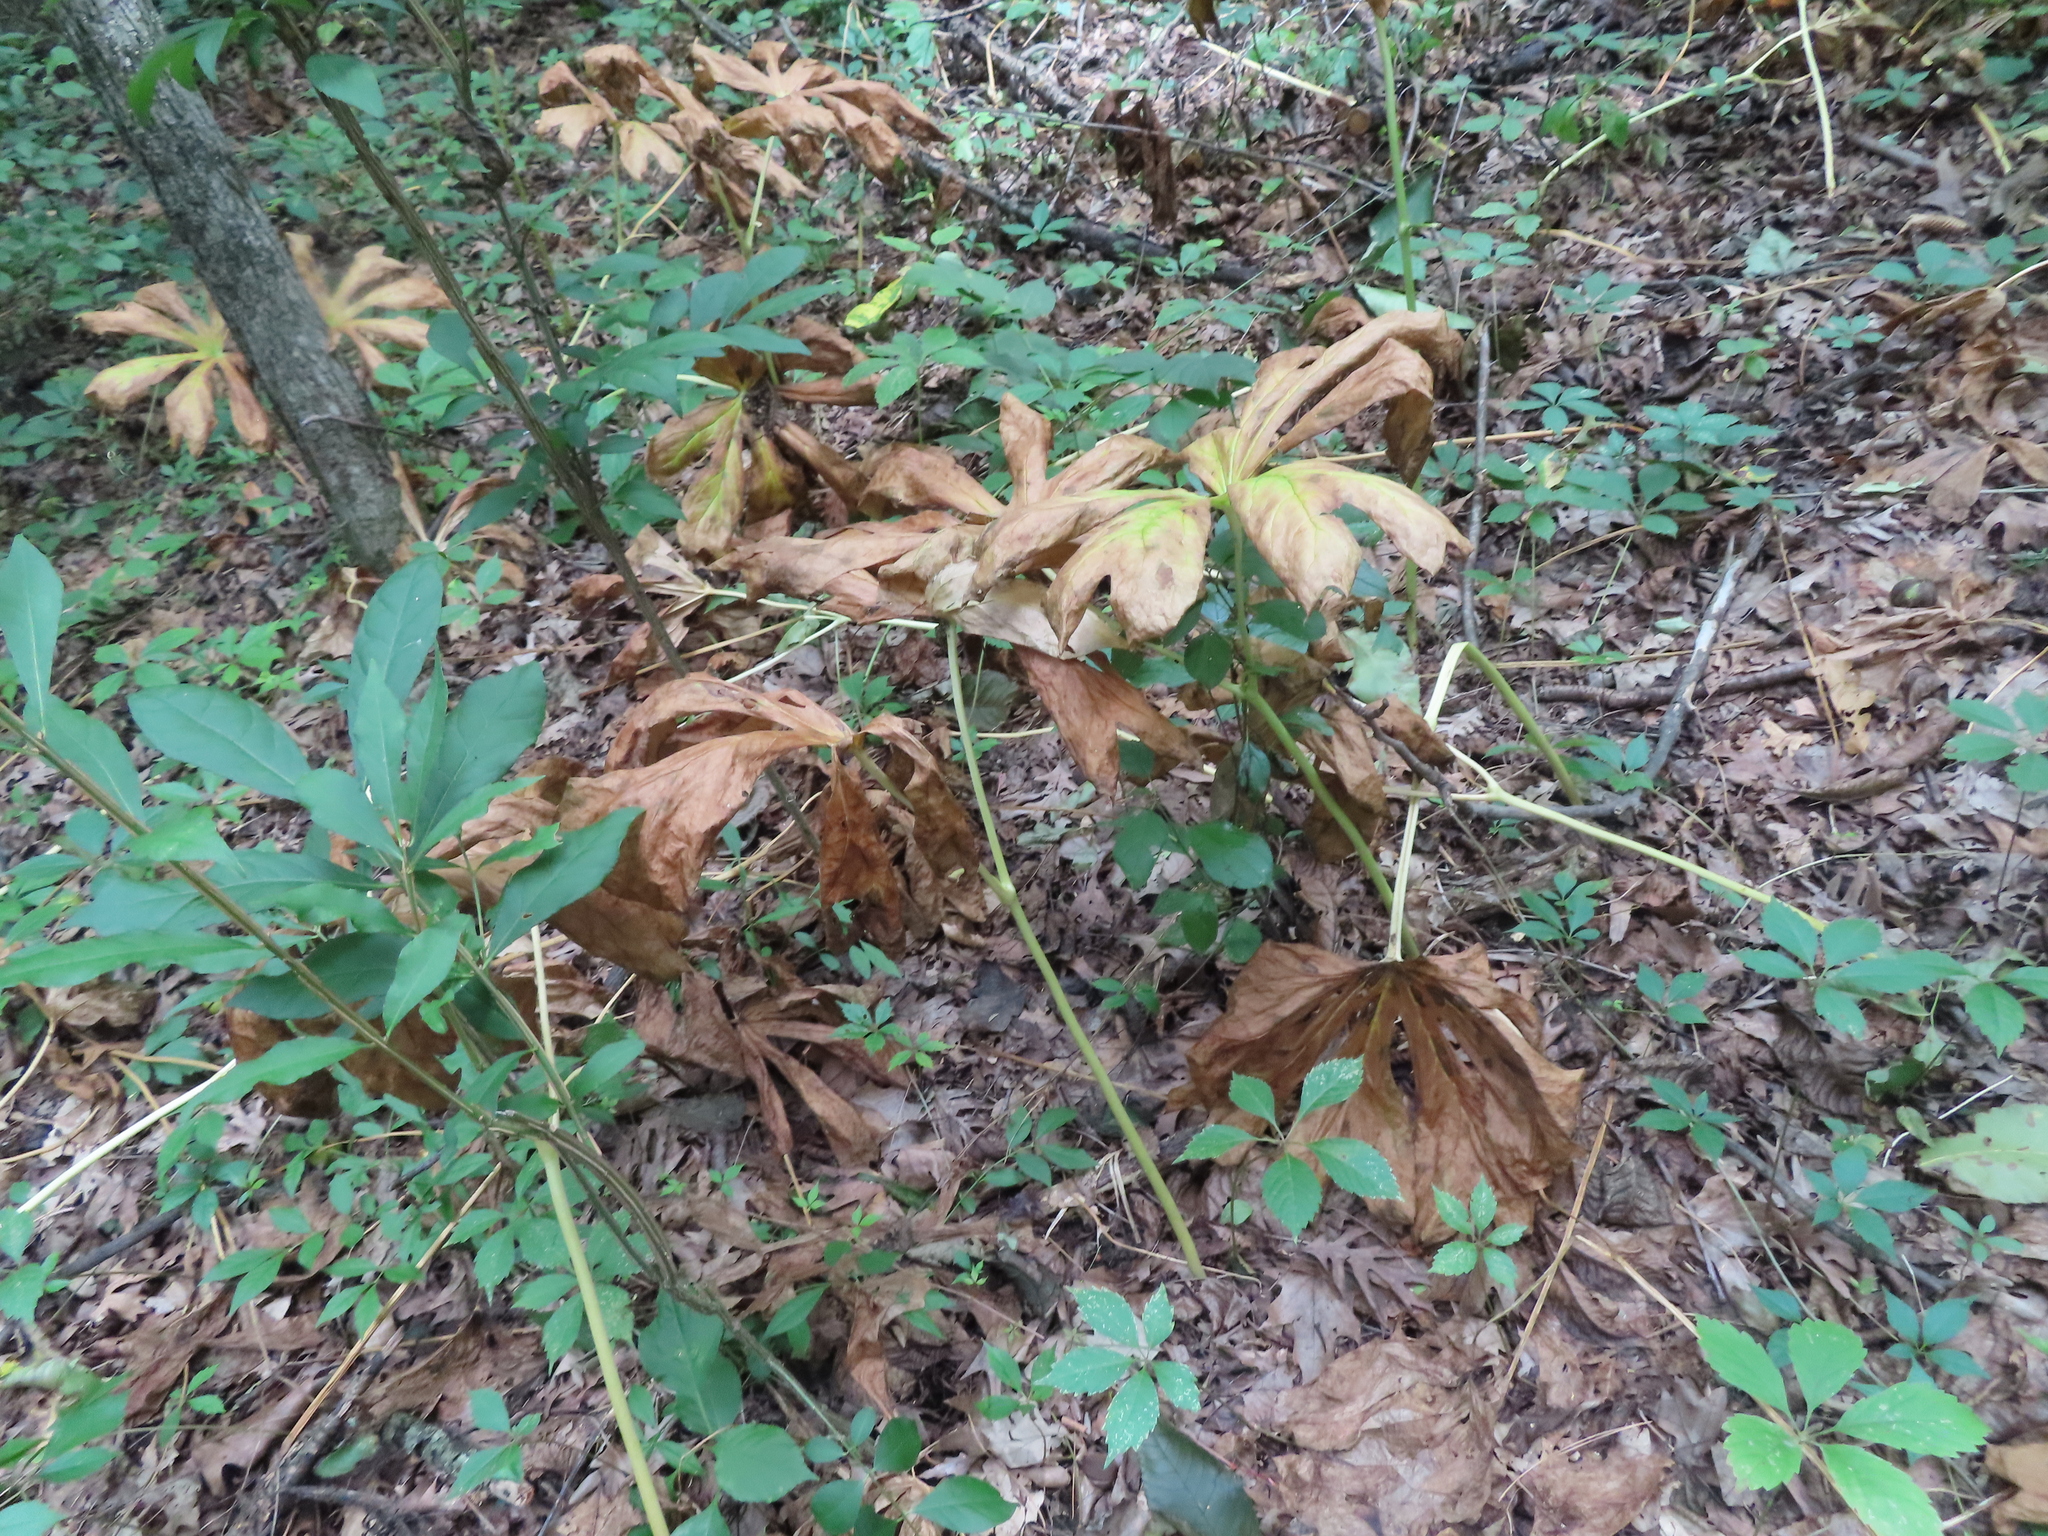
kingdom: Plantae
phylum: Tracheophyta
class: Magnoliopsida
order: Ranunculales
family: Berberidaceae
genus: Podophyllum
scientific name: Podophyllum peltatum
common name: Wild mandrake
